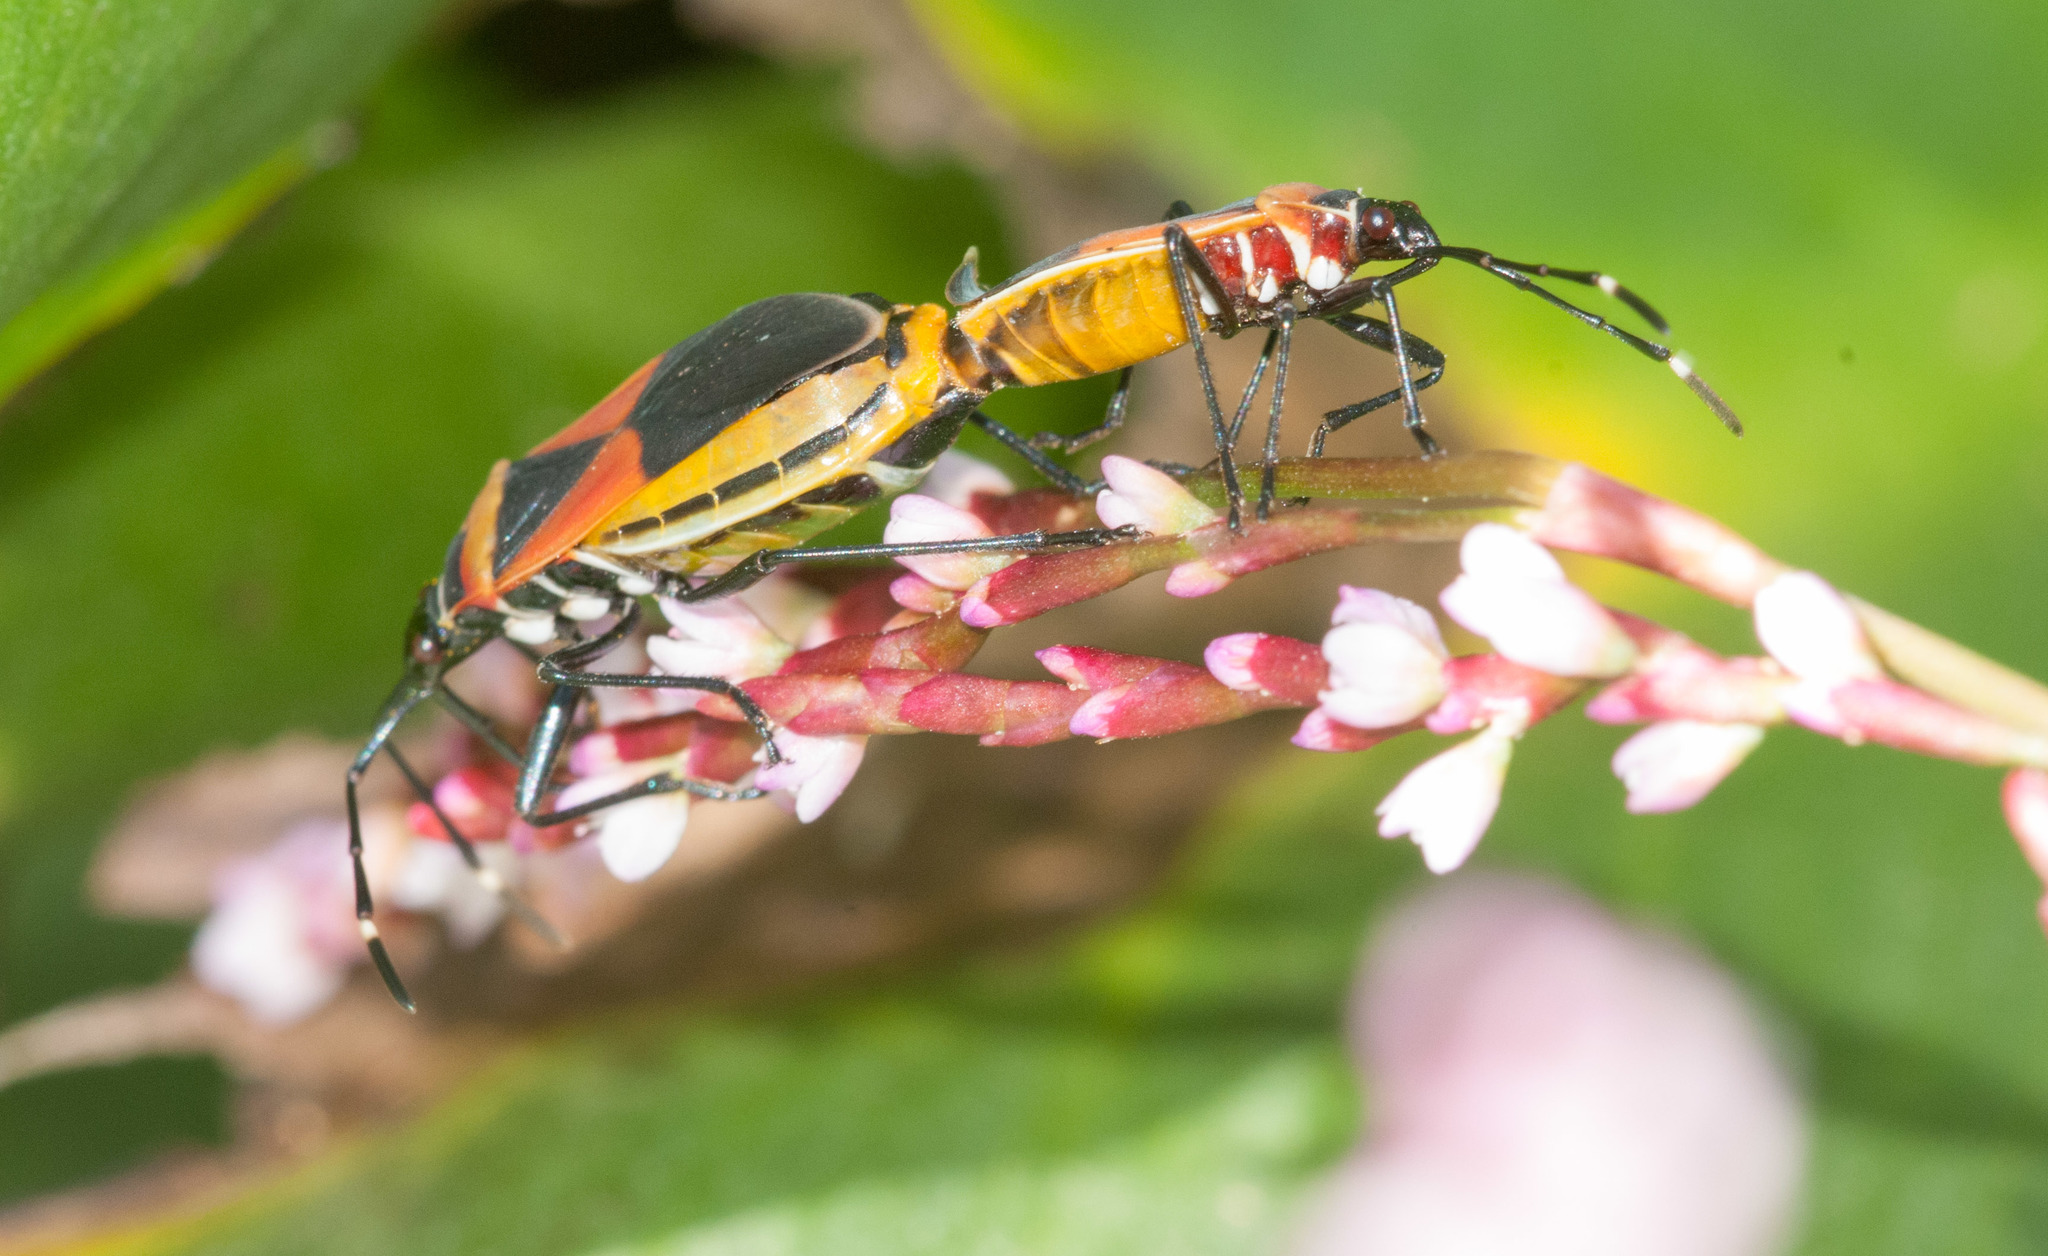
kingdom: Animalia
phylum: Arthropoda
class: Insecta
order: Hemiptera
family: Pyrrhocoridae
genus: Dindymus
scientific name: Dindymus
